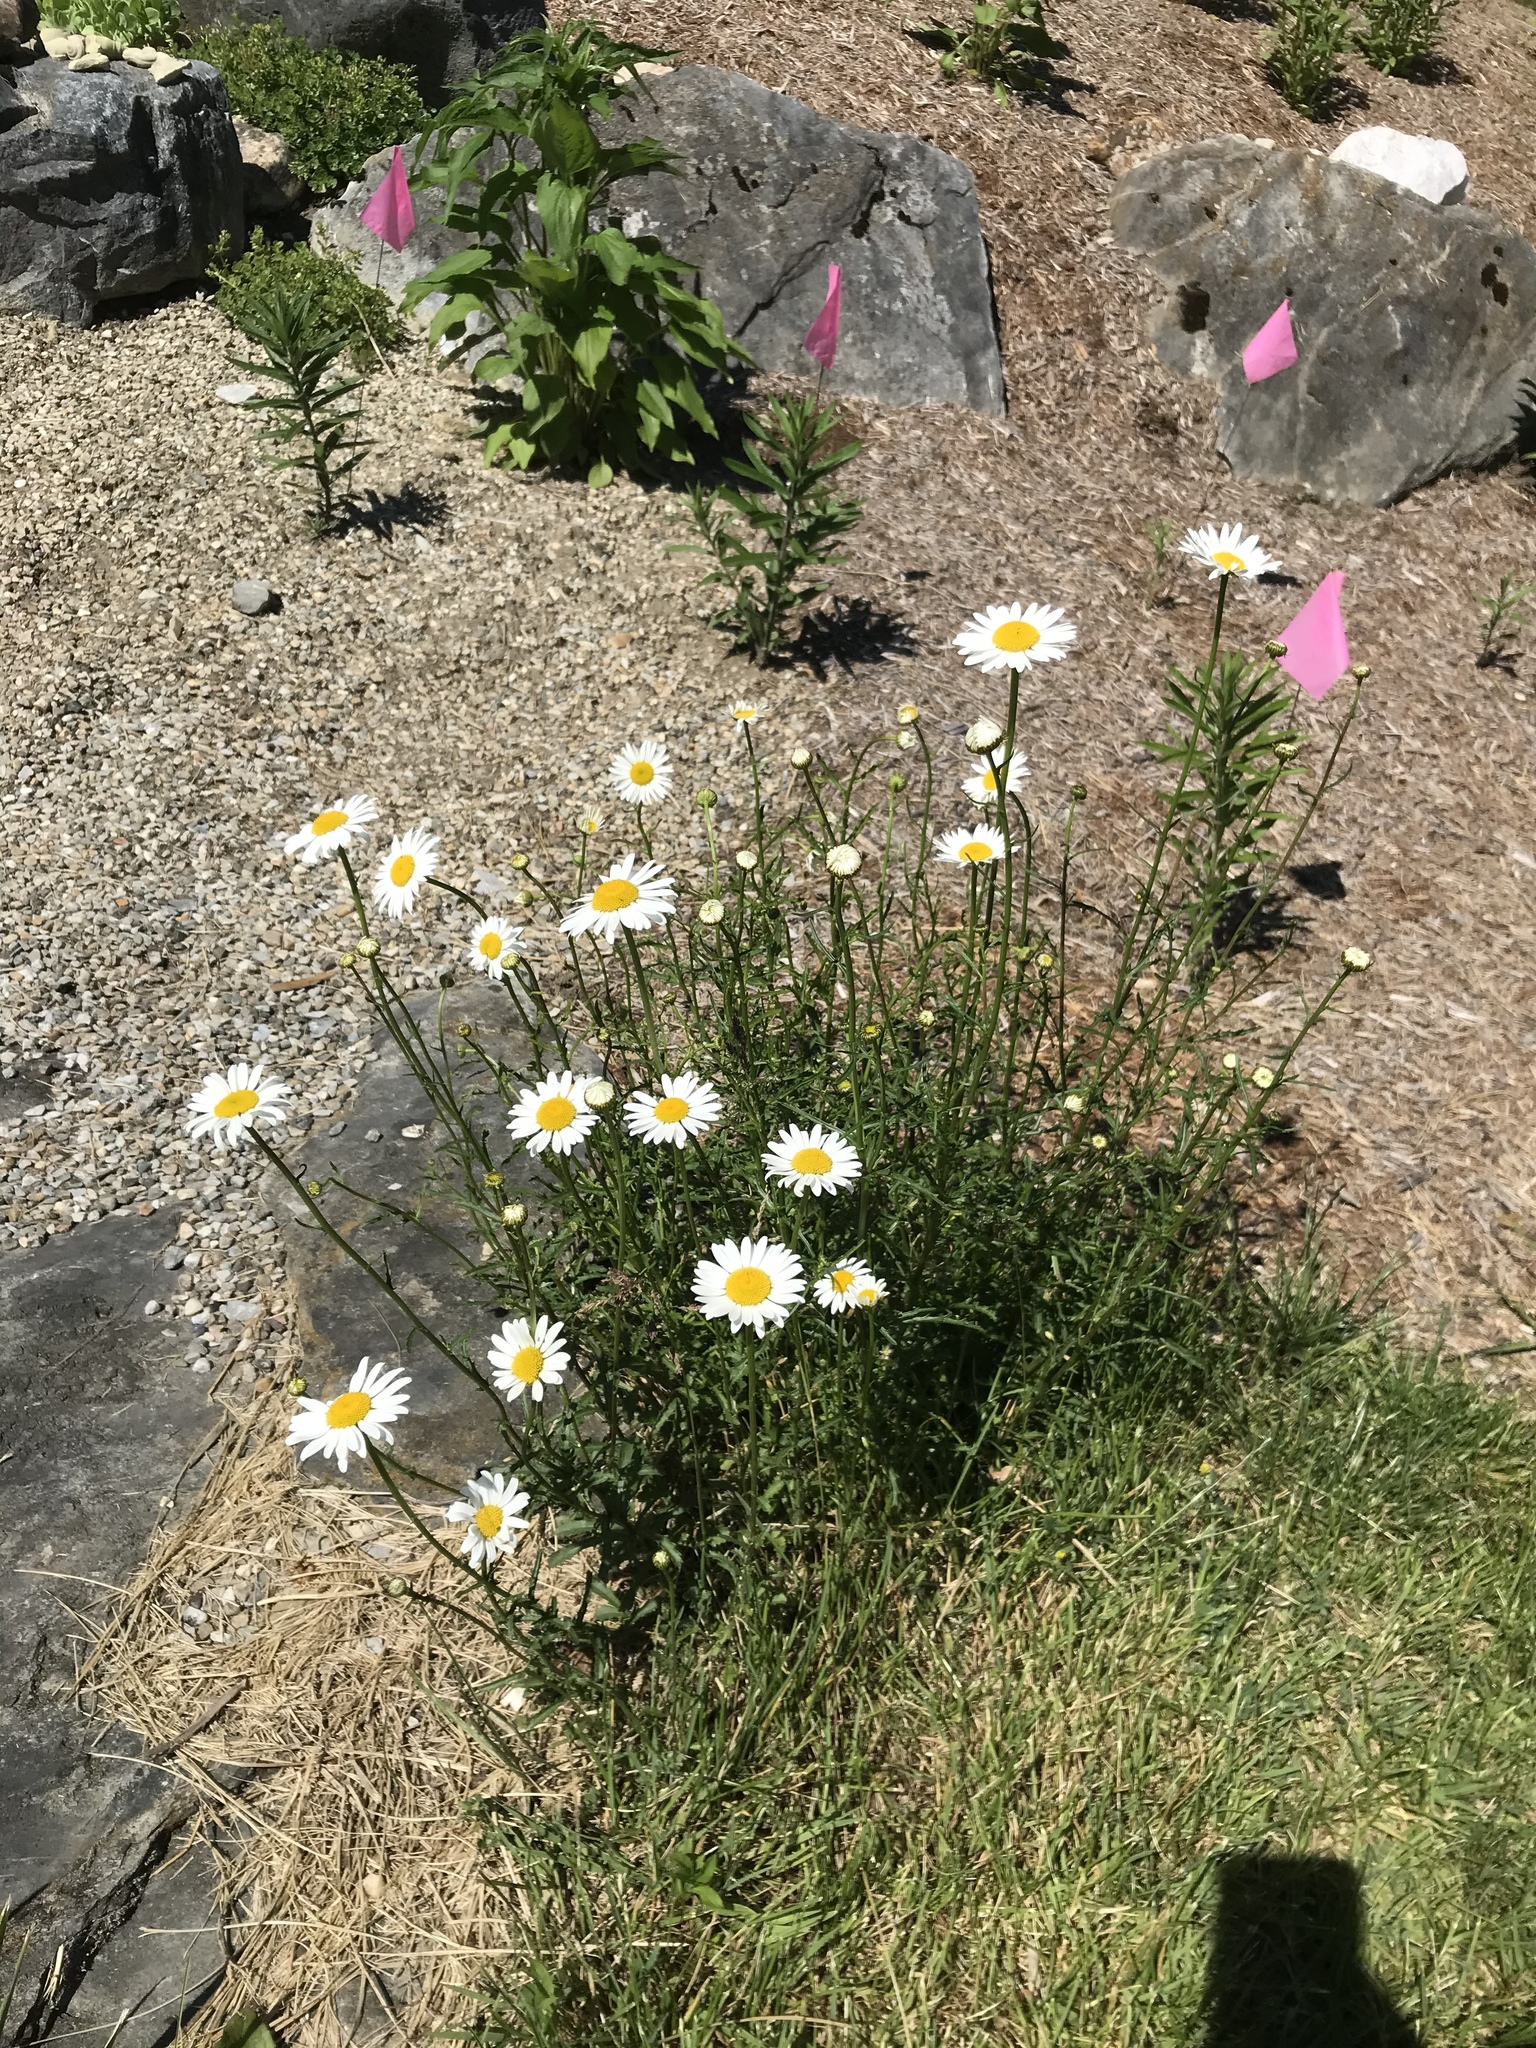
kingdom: Plantae
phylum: Tracheophyta
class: Magnoliopsida
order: Asterales
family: Asteraceae
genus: Leucanthemum
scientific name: Leucanthemum vulgare
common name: Oxeye daisy
